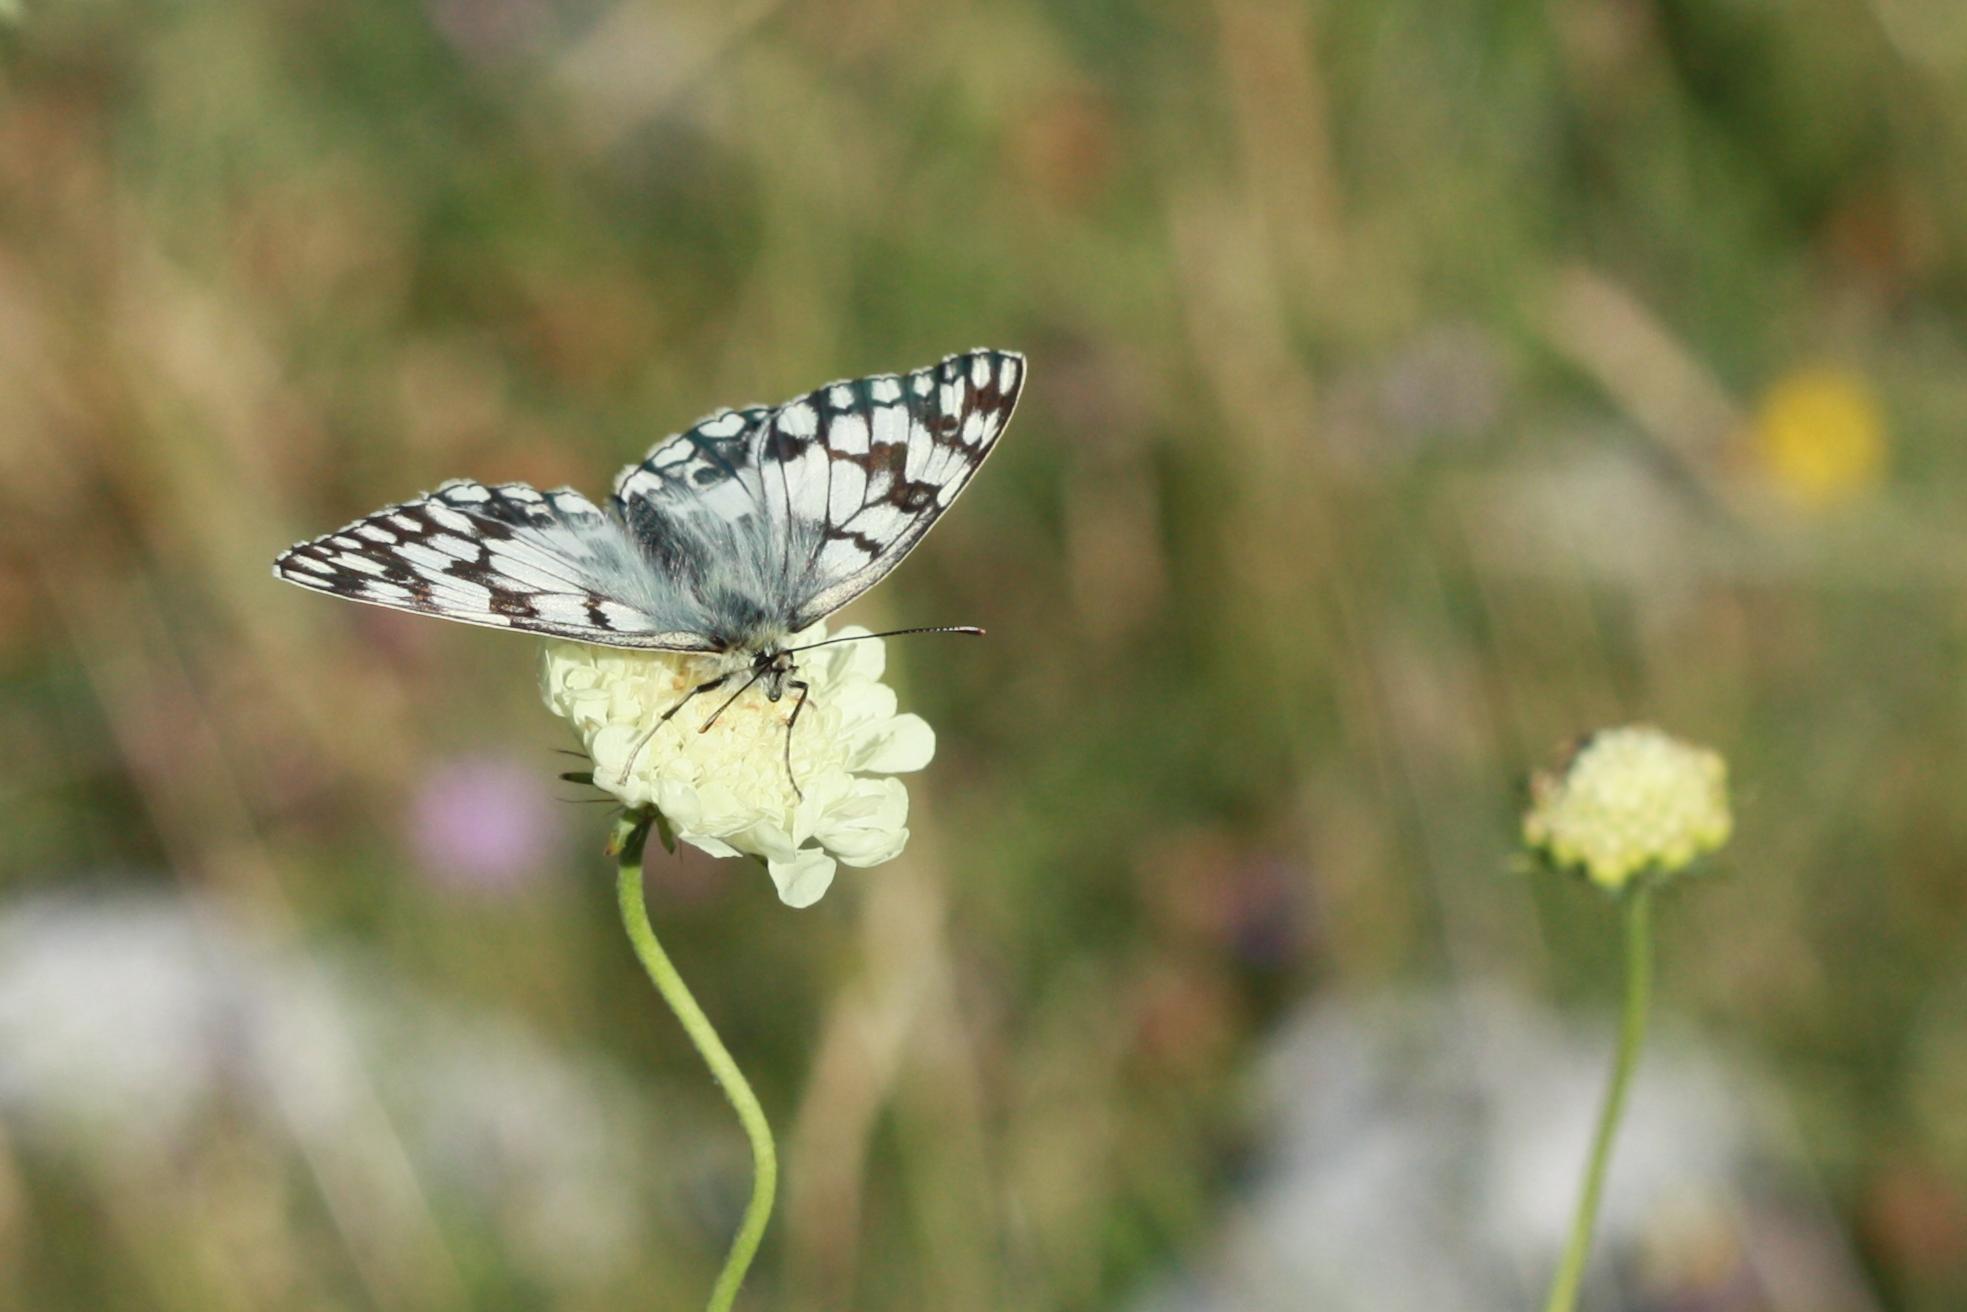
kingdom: Animalia
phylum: Arthropoda
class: Insecta
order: Lepidoptera
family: Nymphalidae
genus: Melanargia
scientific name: Melanargia japygia
